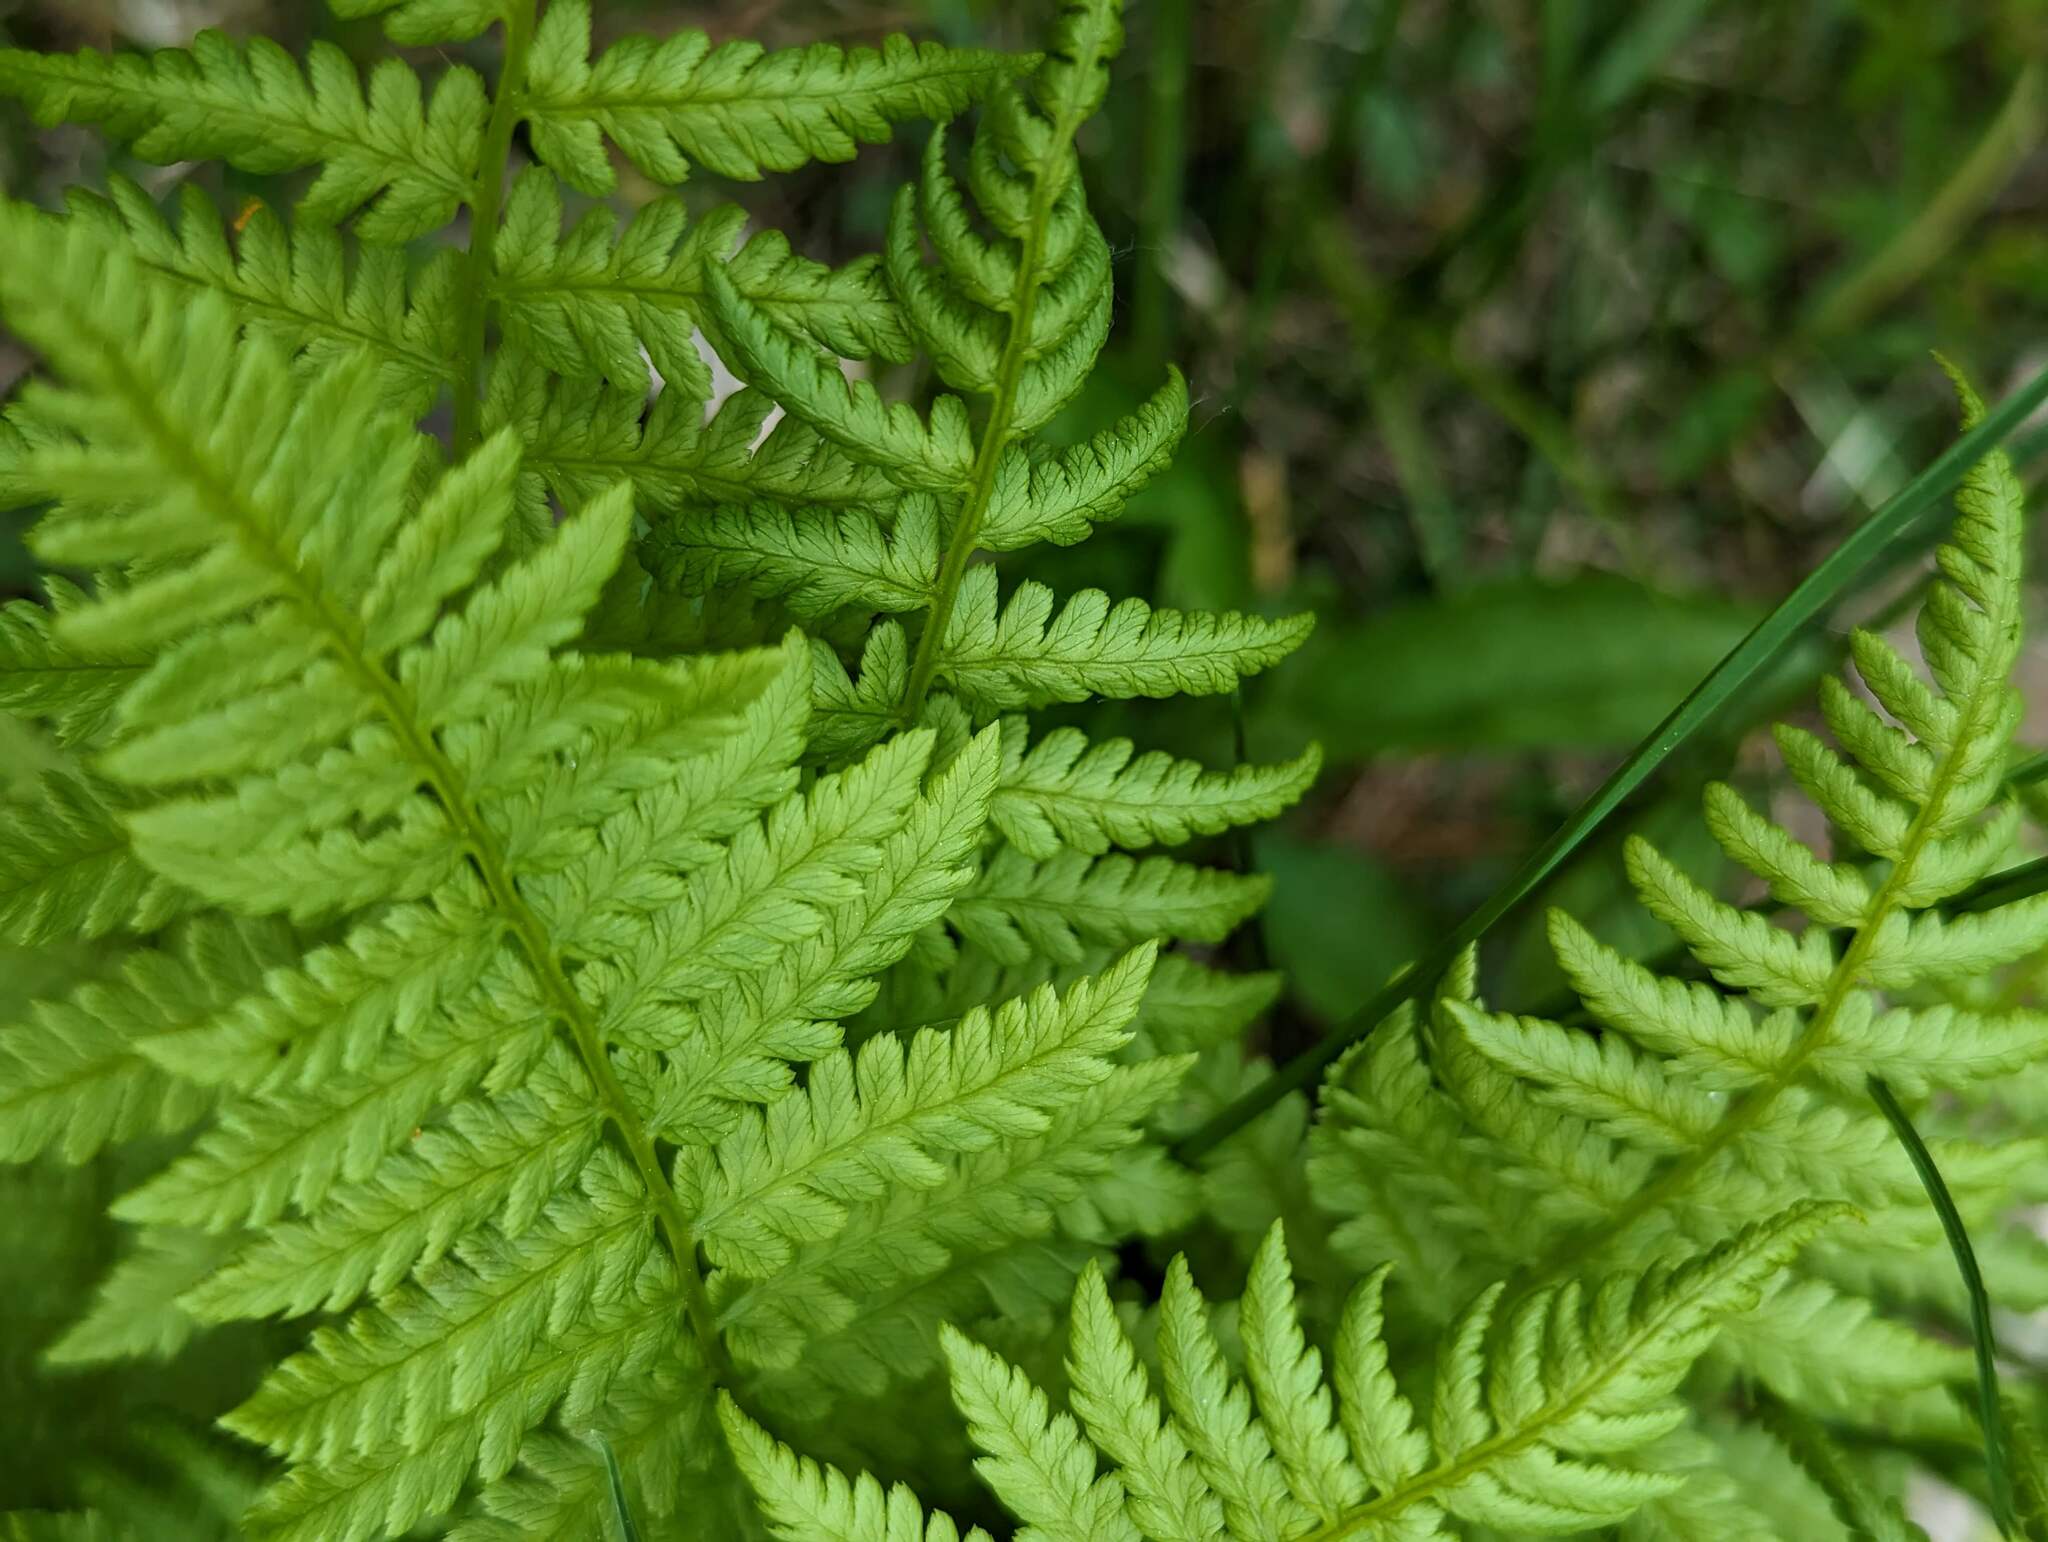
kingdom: Plantae
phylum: Tracheophyta
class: Polypodiopsida
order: Polypodiales
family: Athyriaceae
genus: Athyrium
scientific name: Athyrium angustum
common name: Northern lady fern
